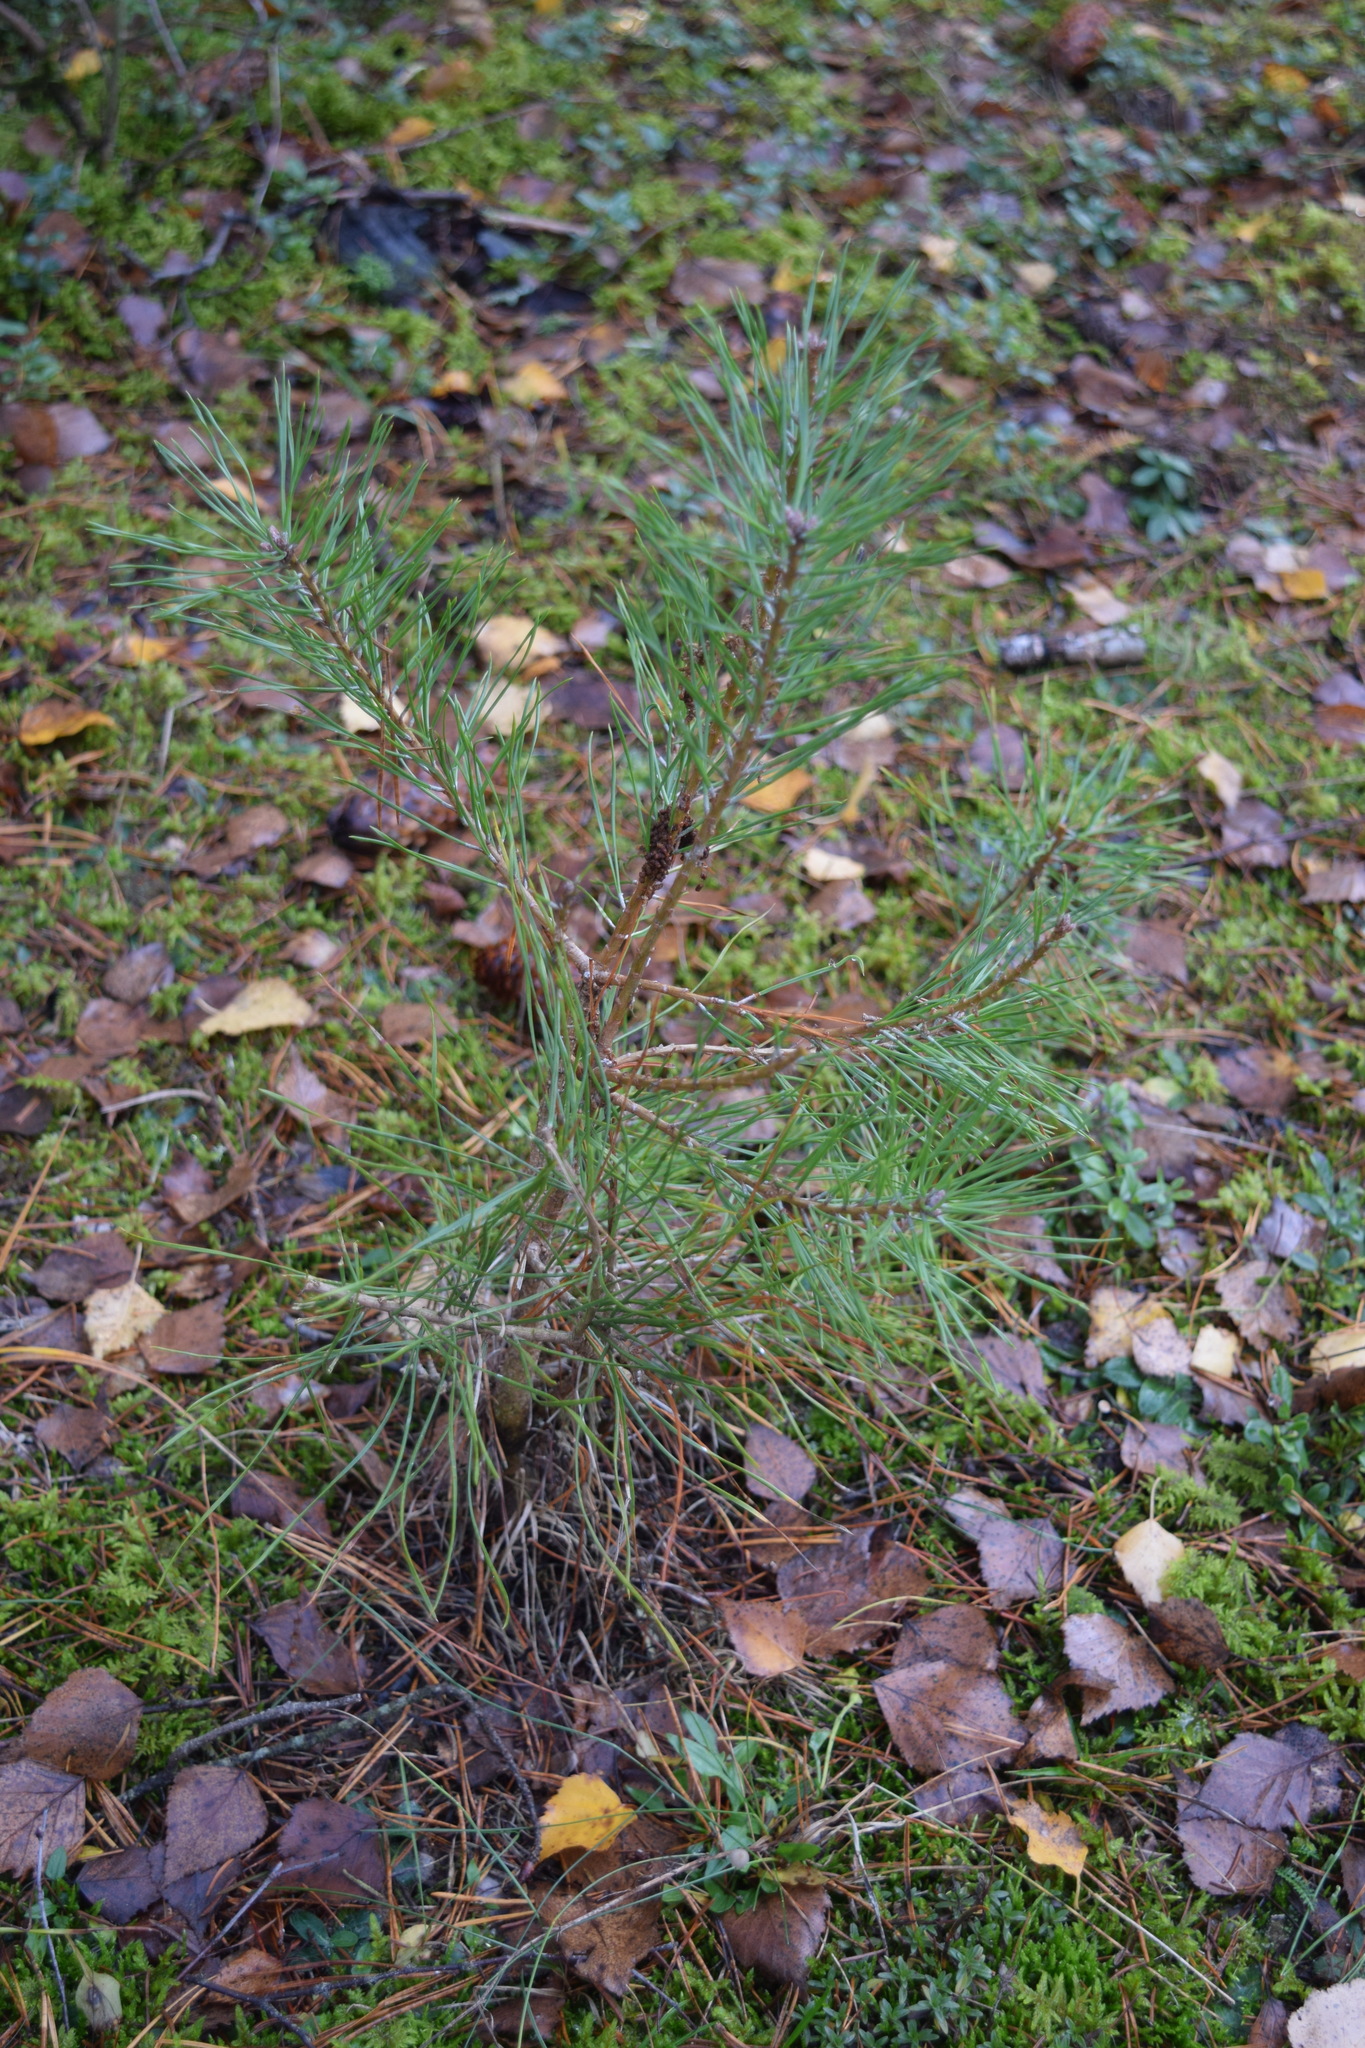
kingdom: Plantae
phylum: Tracheophyta
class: Pinopsida
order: Pinales
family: Pinaceae
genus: Pinus
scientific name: Pinus sylvestris
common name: Scots pine
